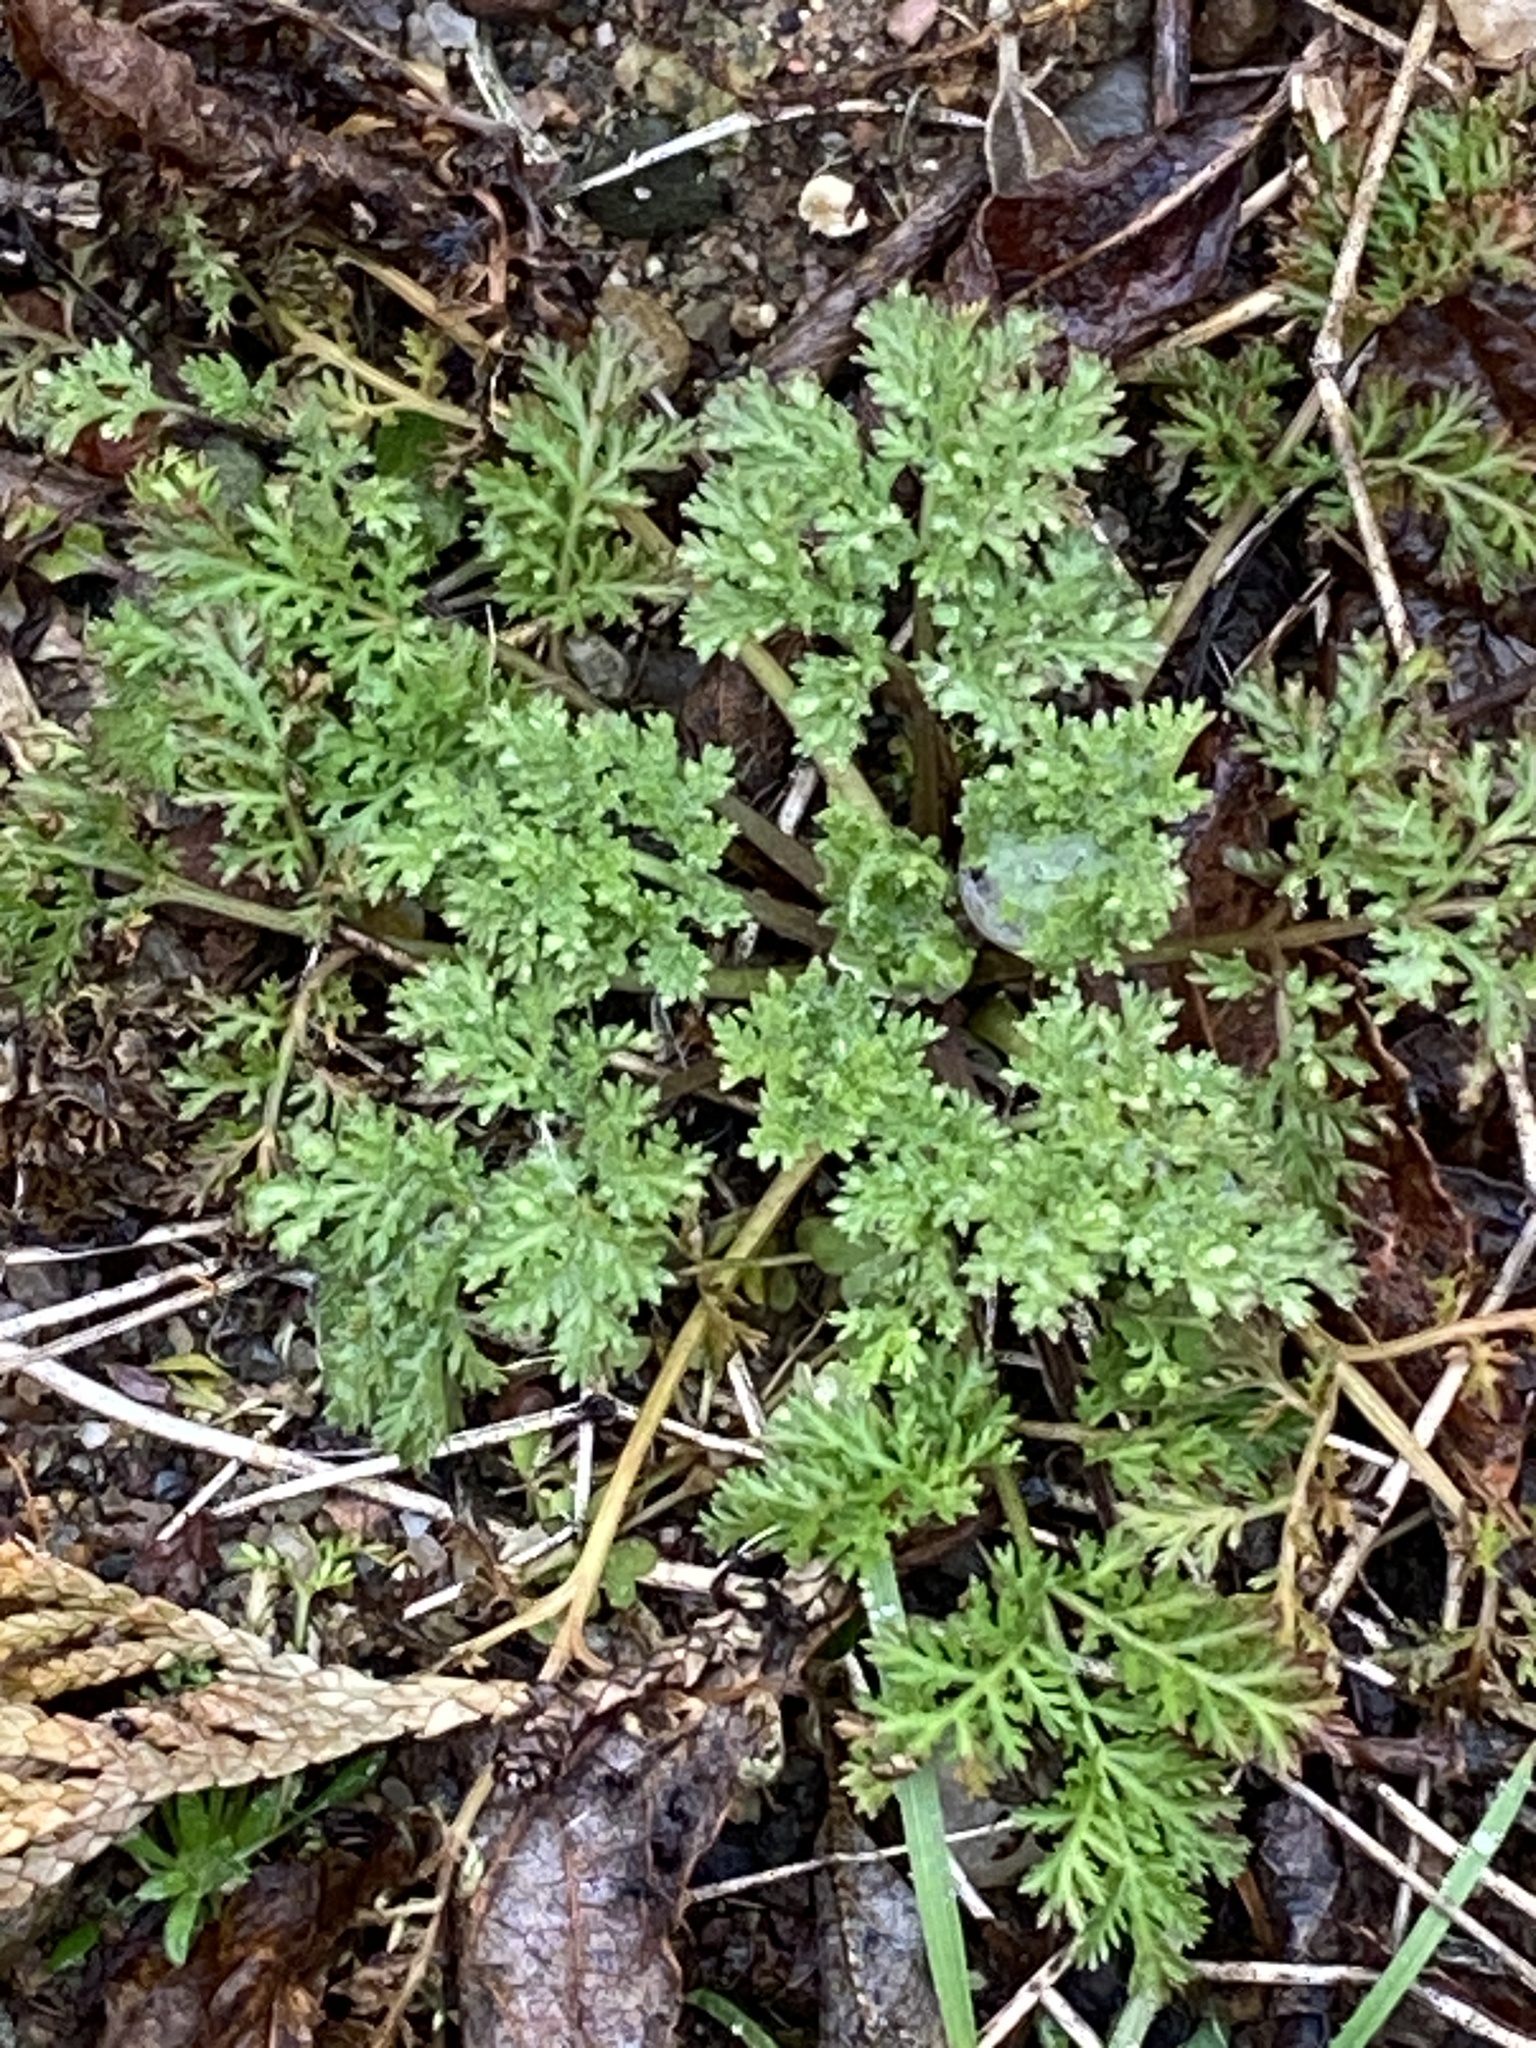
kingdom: Plantae
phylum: Tracheophyta
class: Magnoliopsida
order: Asterales
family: Asteraceae
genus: Artemisia
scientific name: Artemisia annua
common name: Sweet sagewort
